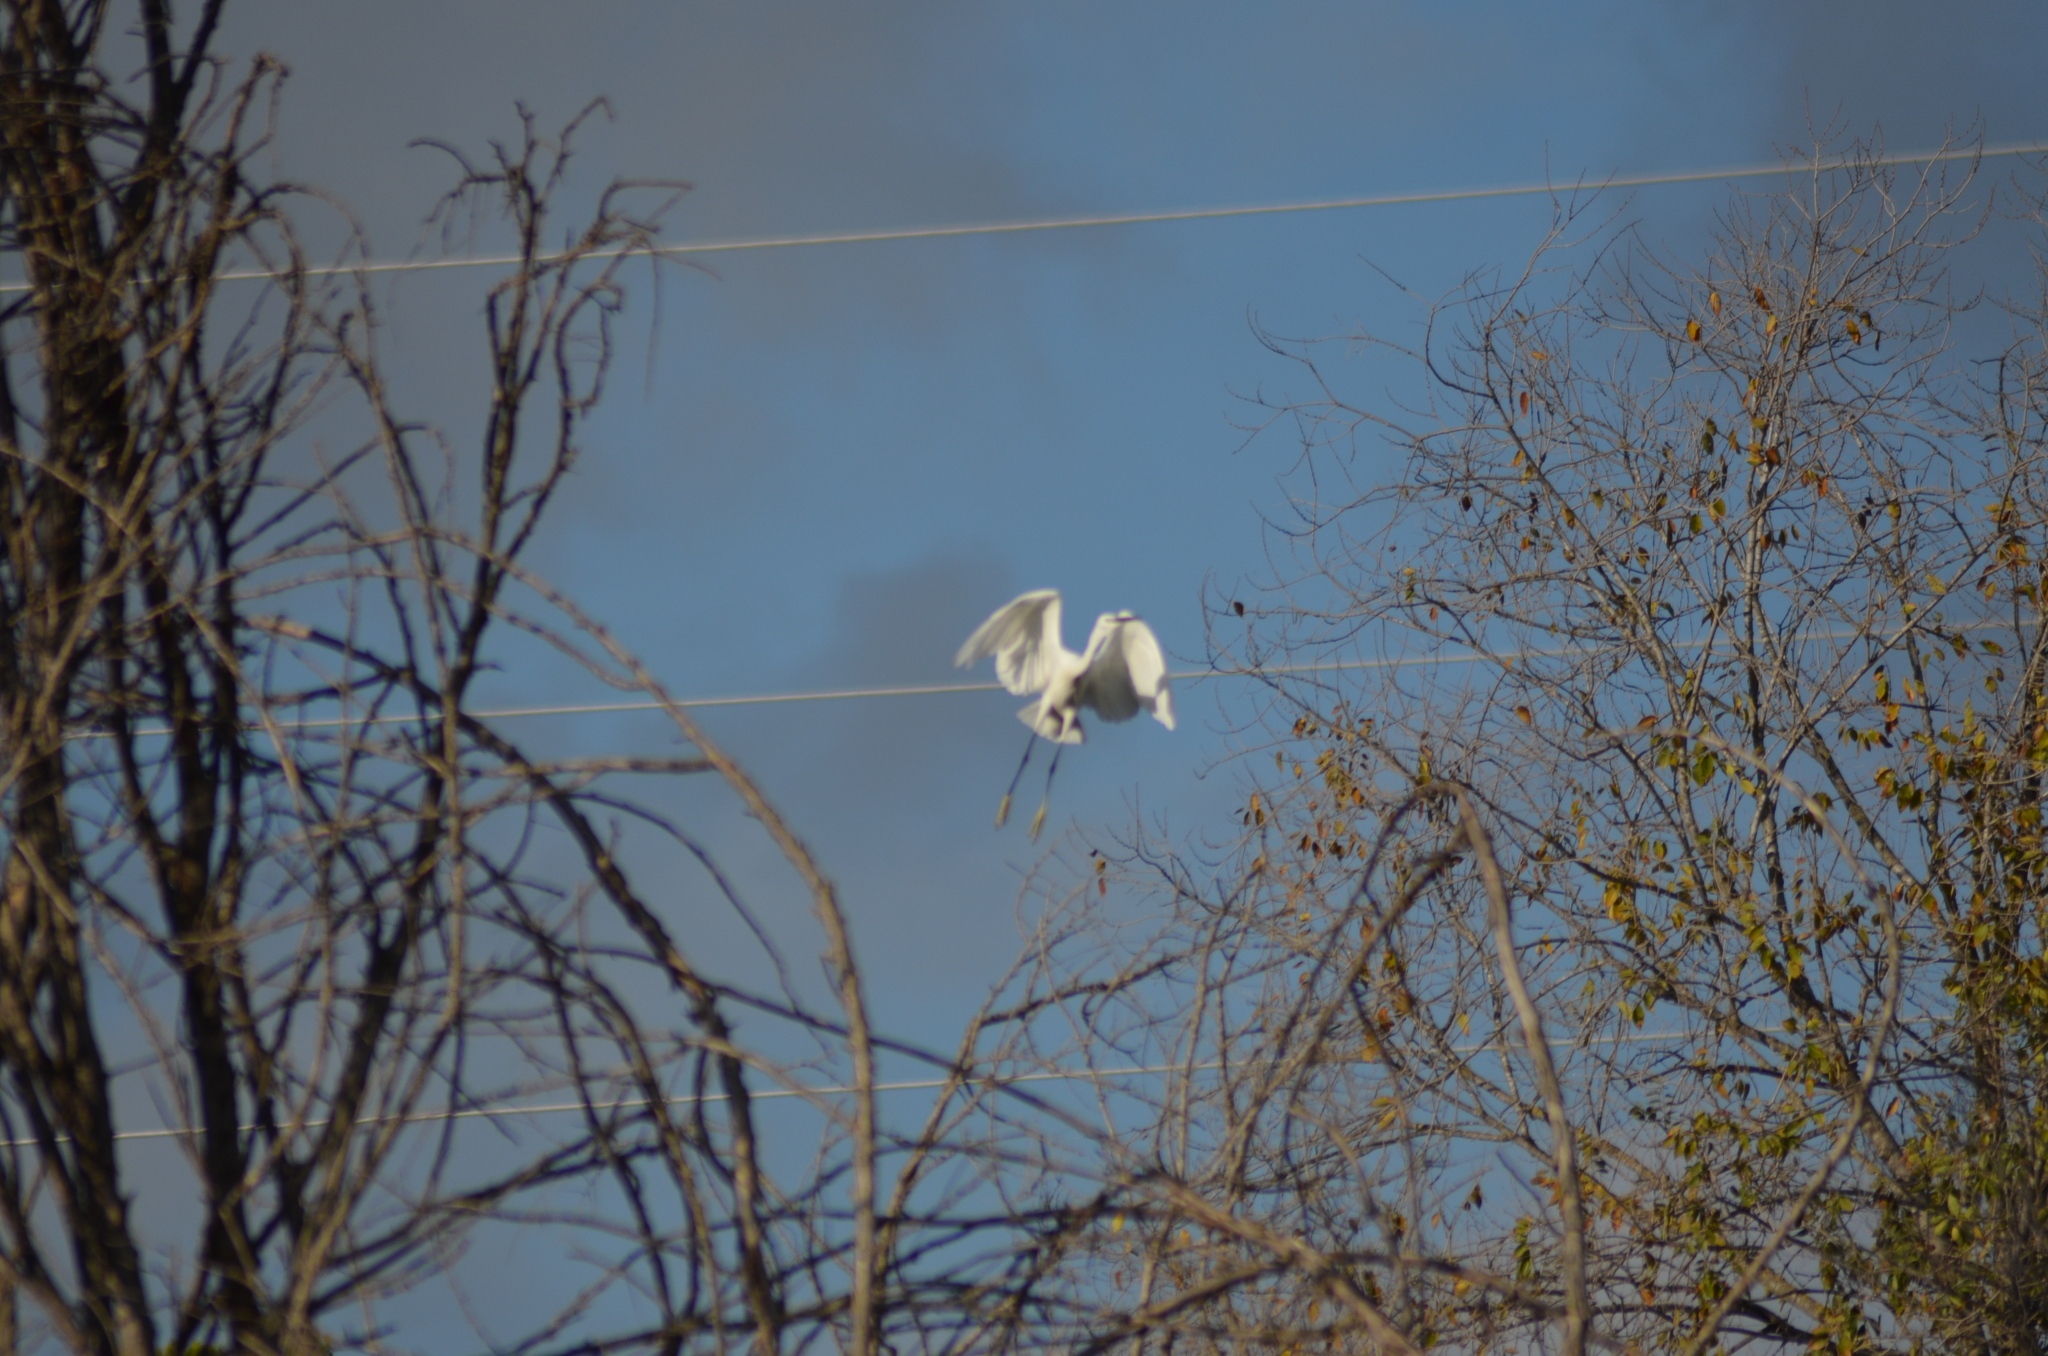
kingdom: Animalia
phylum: Chordata
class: Aves
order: Pelecaniformes
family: Ardeidae
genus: Egretta
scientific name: Egretta garzetta
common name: Little egret
